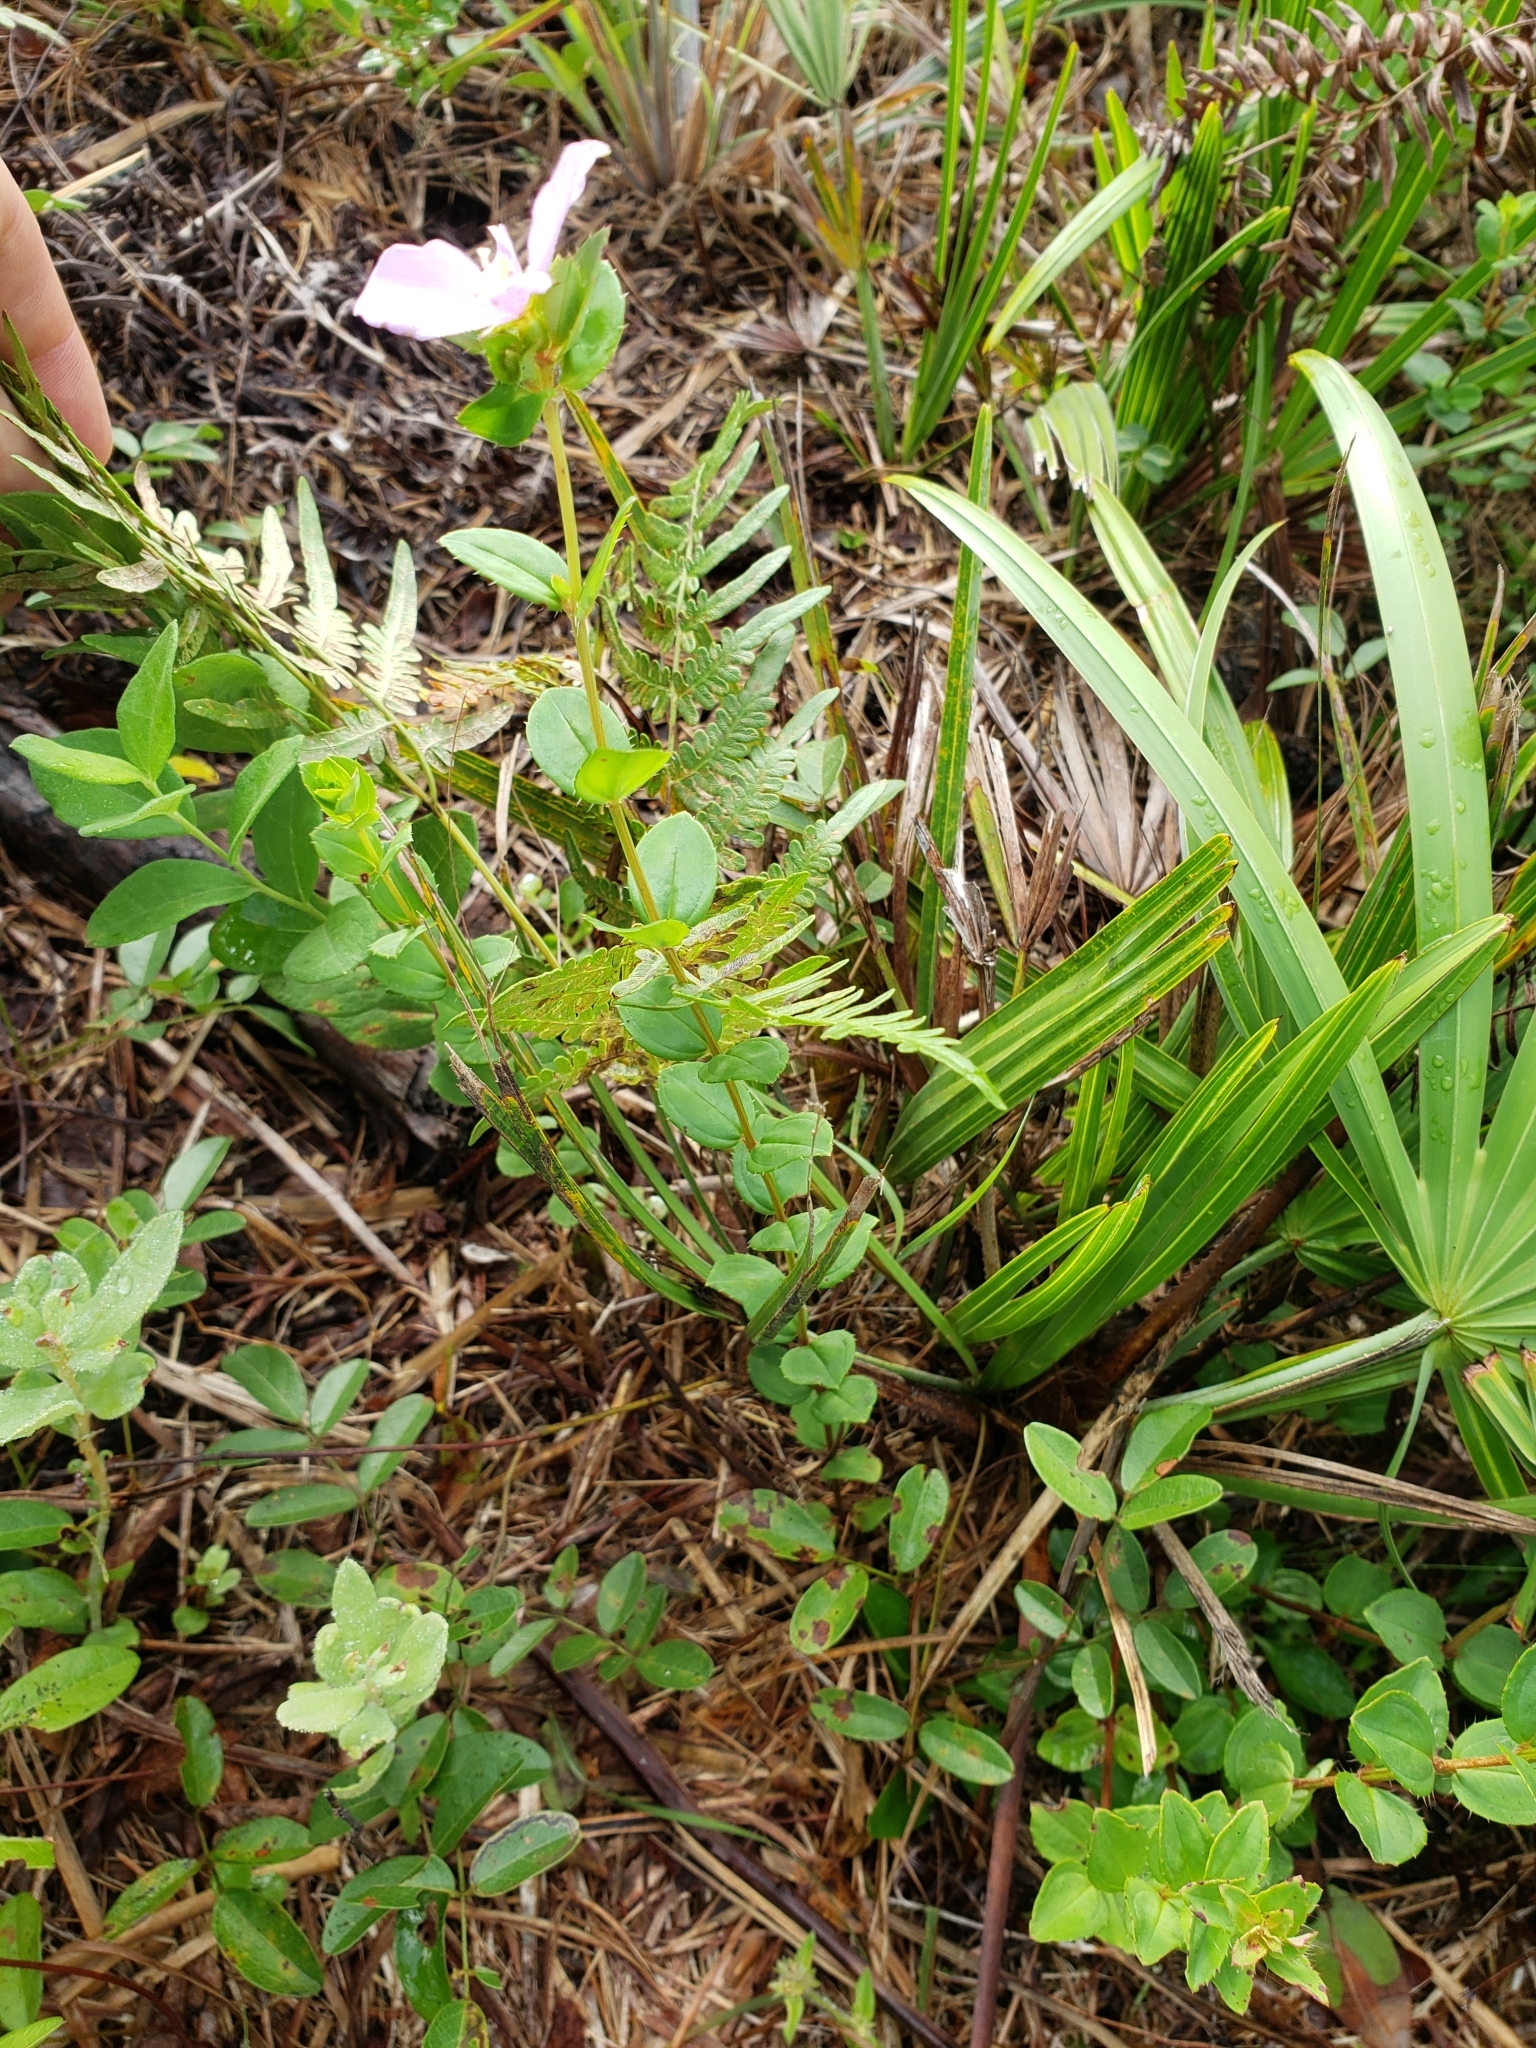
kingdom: Plantae
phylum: Tracheophyta
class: Magnoliopsida
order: Myrtales
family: Melastomataceae
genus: Rhexia
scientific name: Rhexia petiolata
